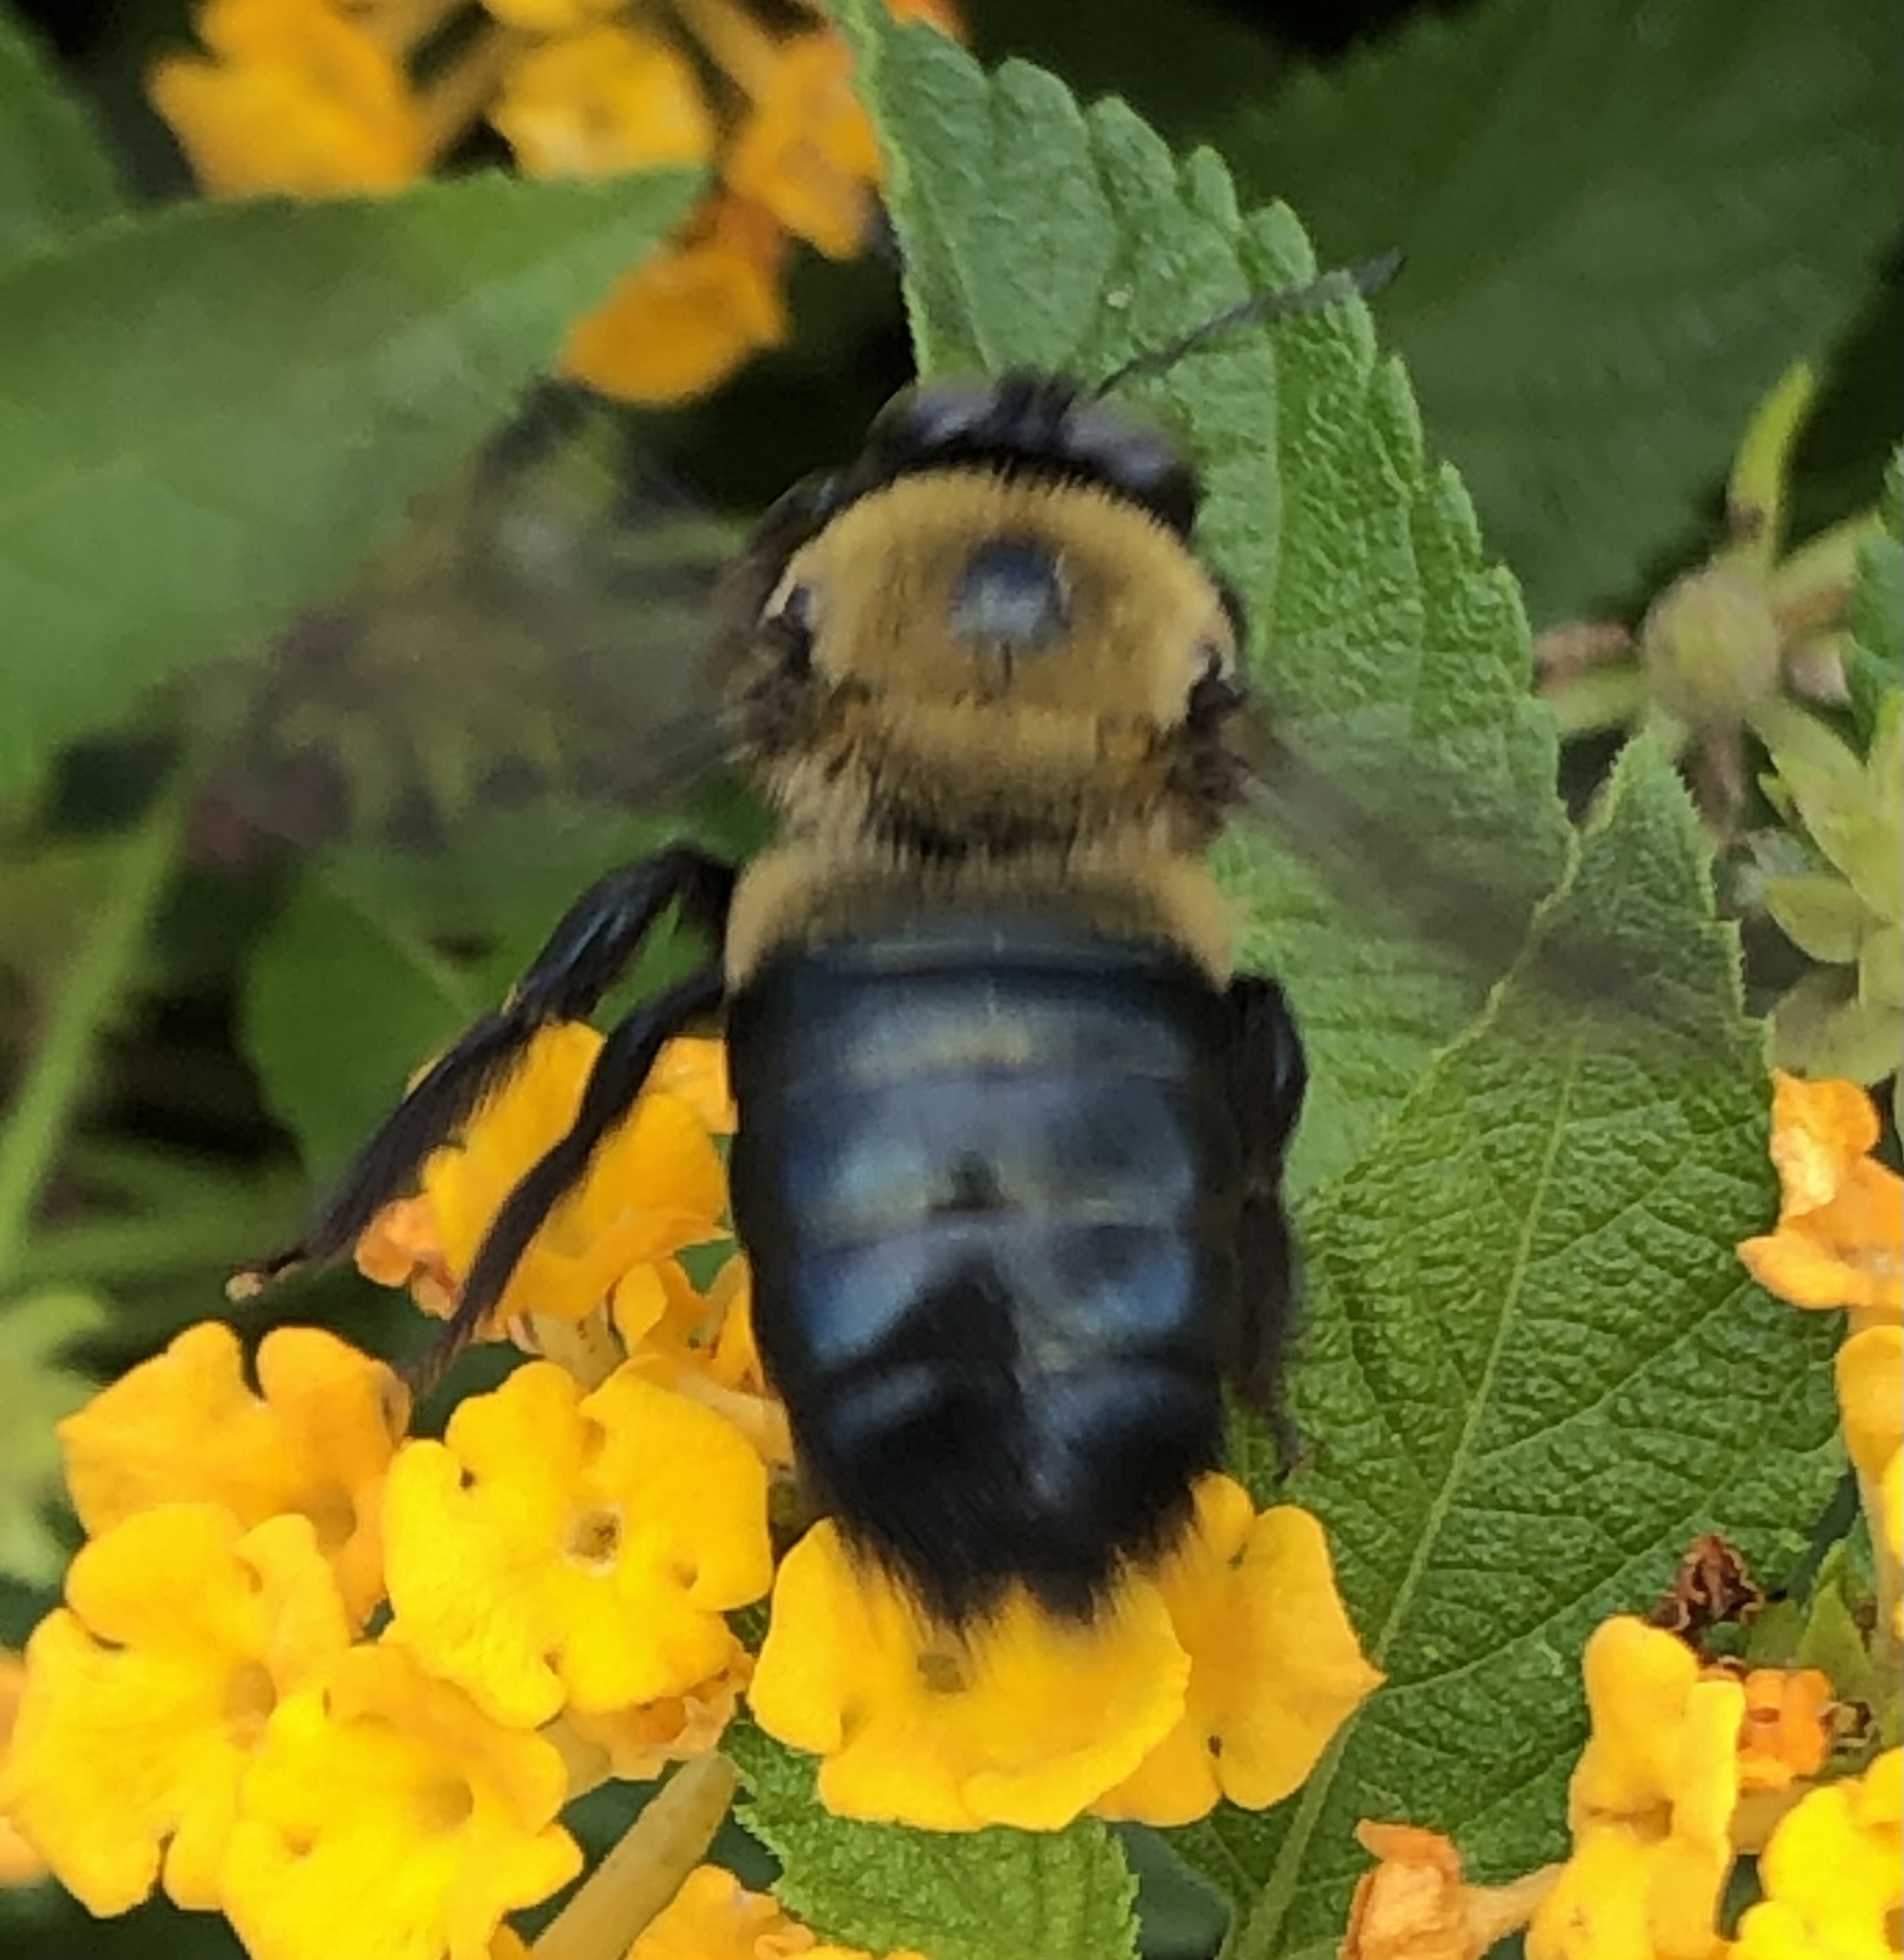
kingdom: Animalia
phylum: Arthropoda
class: Insecta
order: Hymenoptera
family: Apidae
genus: Xylocopa
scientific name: Xylocopa virginica
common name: Carpenter bee
